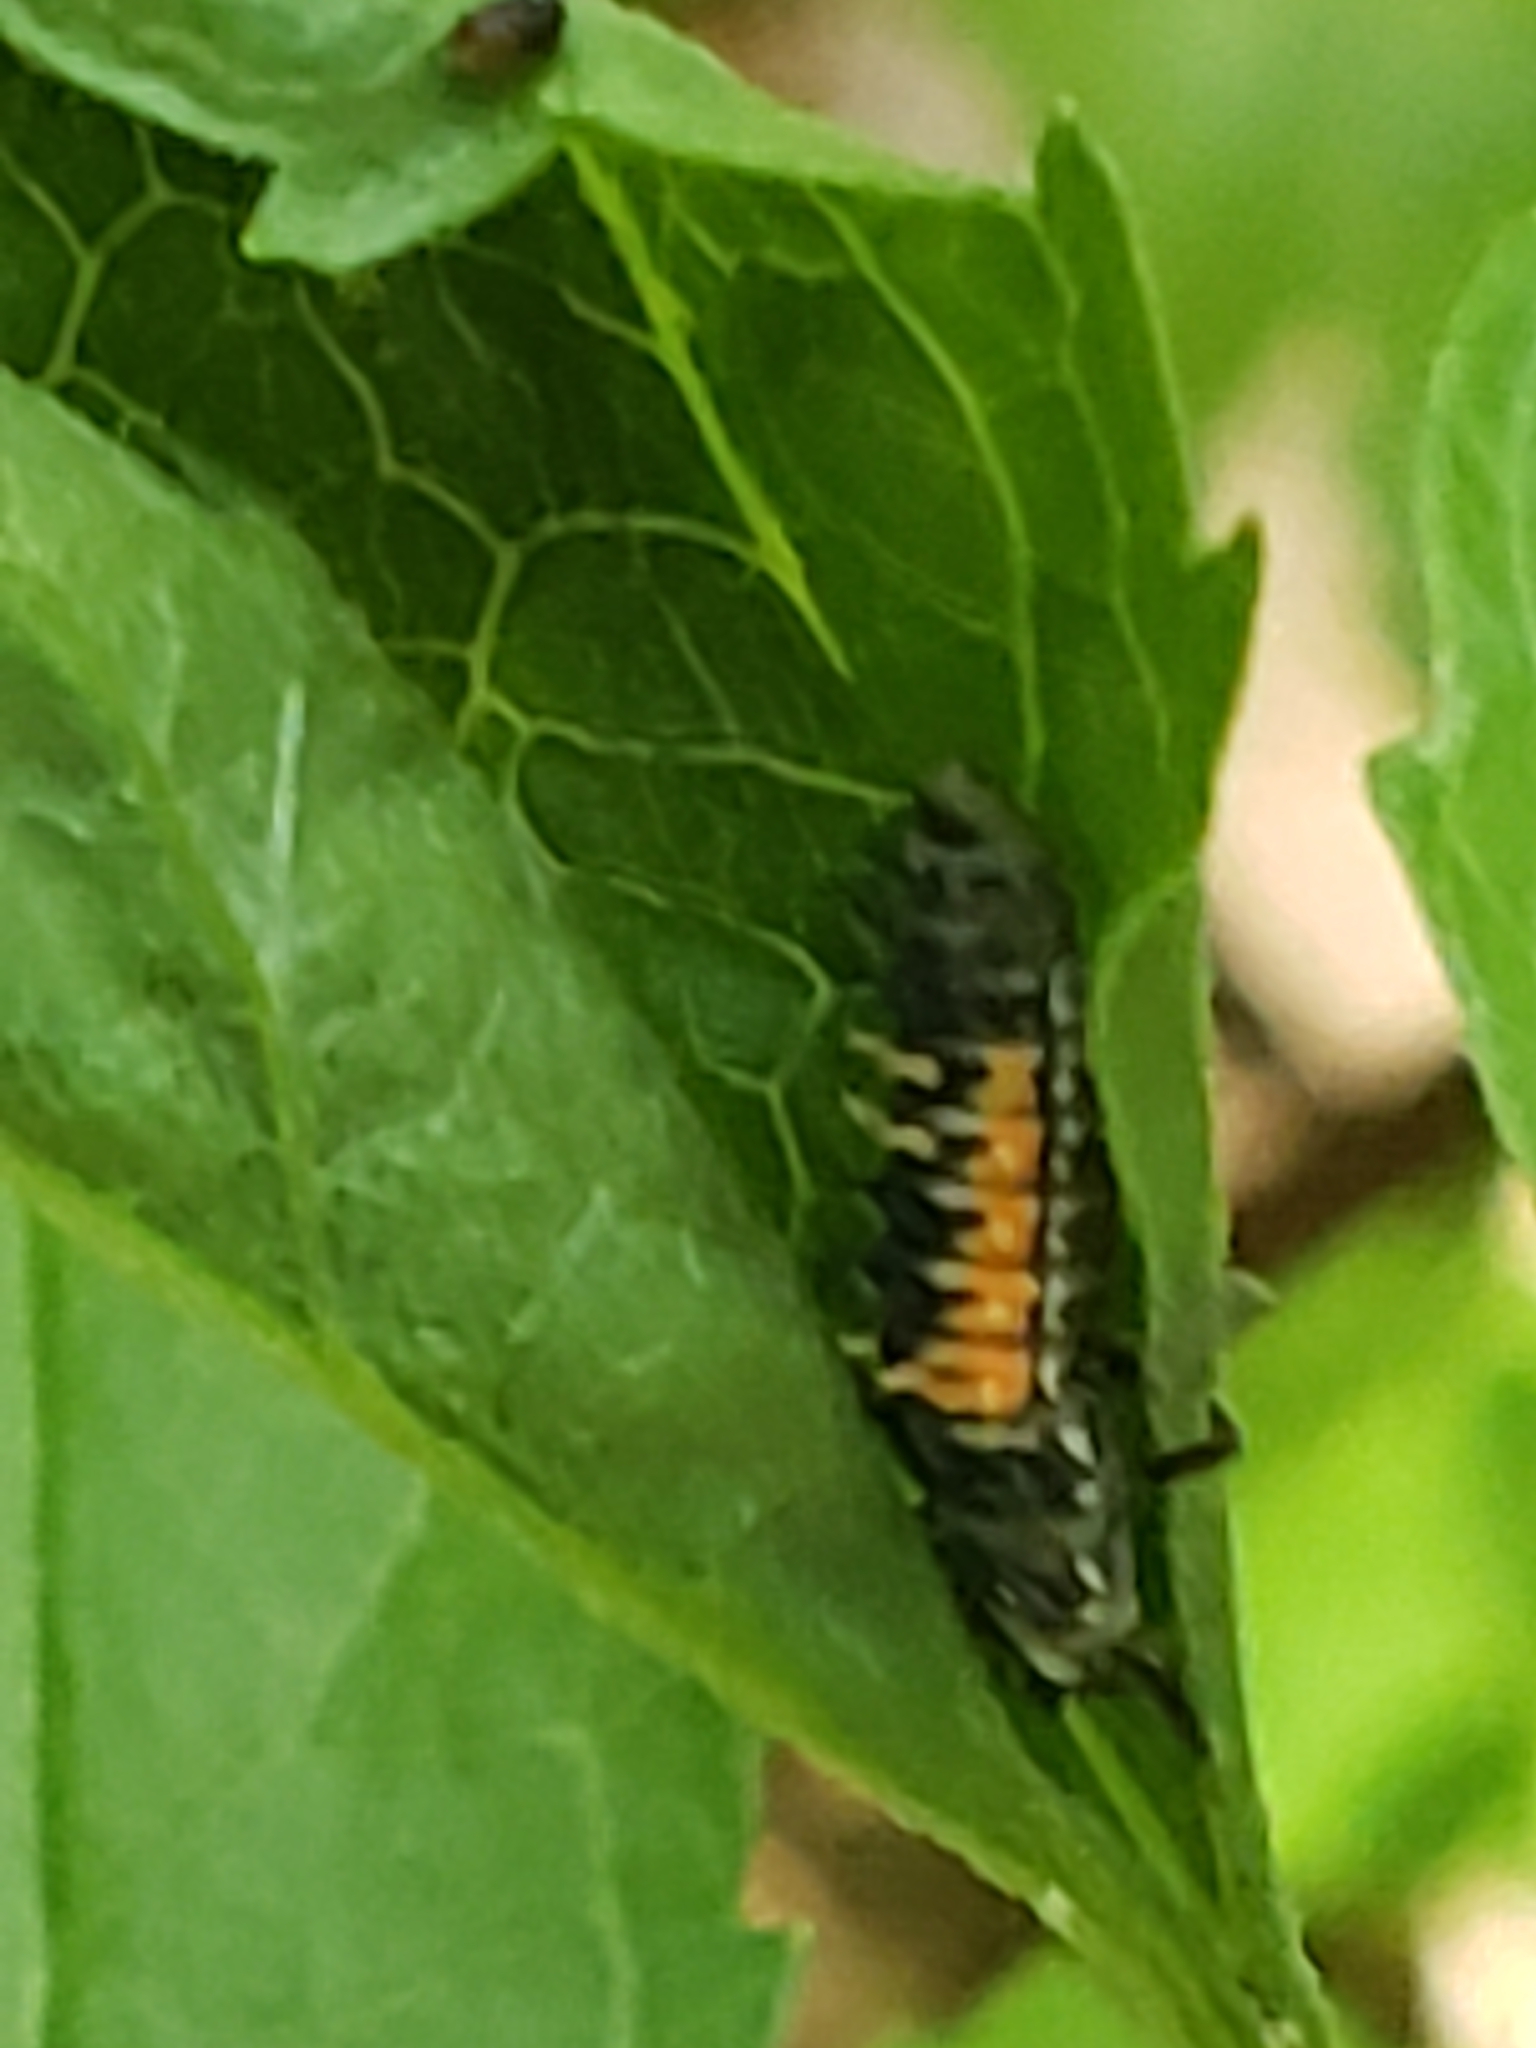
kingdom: Animalia
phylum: Arthropoda
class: Insecta
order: Coleoptera
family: Coccinellidae
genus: Harmonia
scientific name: Harmonia axyridis
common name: Harlequin ladybird
